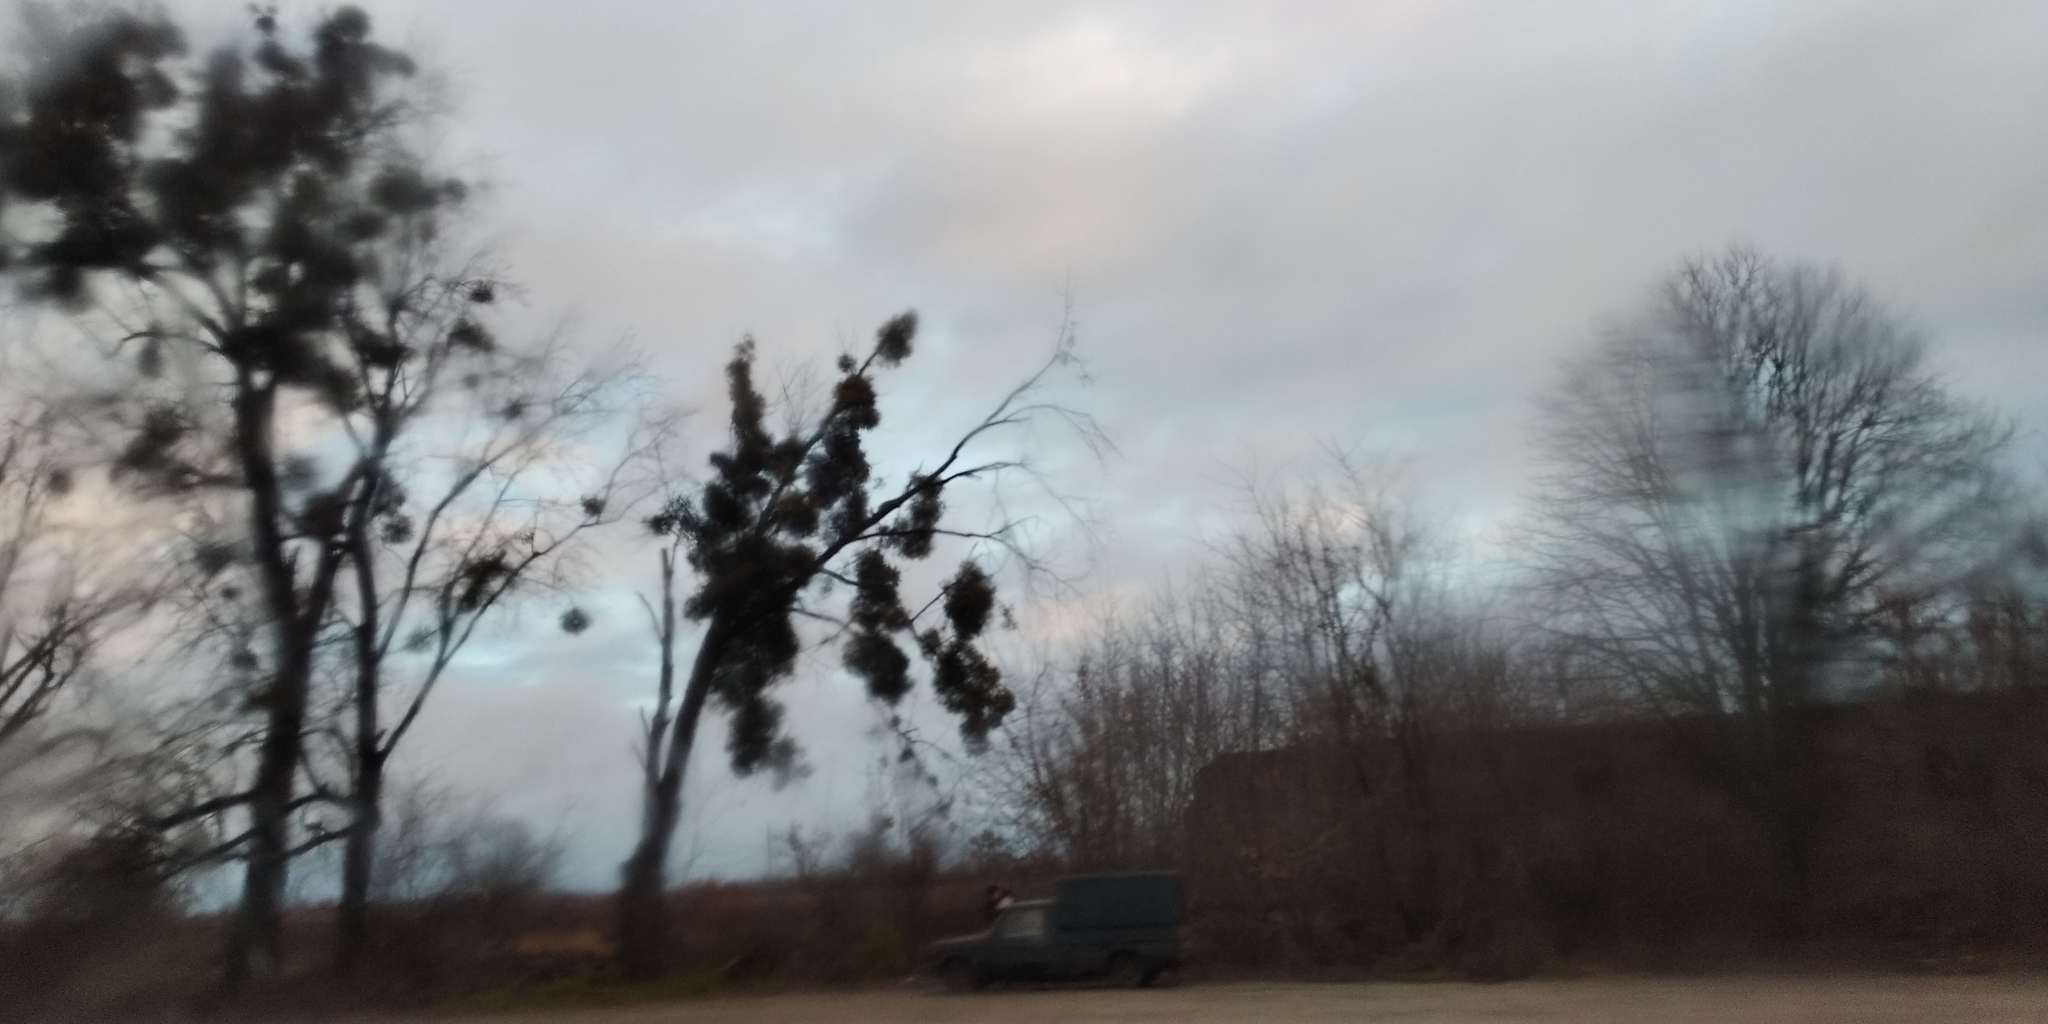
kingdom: Plantae
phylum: Tracheophyta
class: Magnoliopsida
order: Santalales
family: Viscaceae
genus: Viscum
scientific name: Viscum album
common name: Mistletoe
